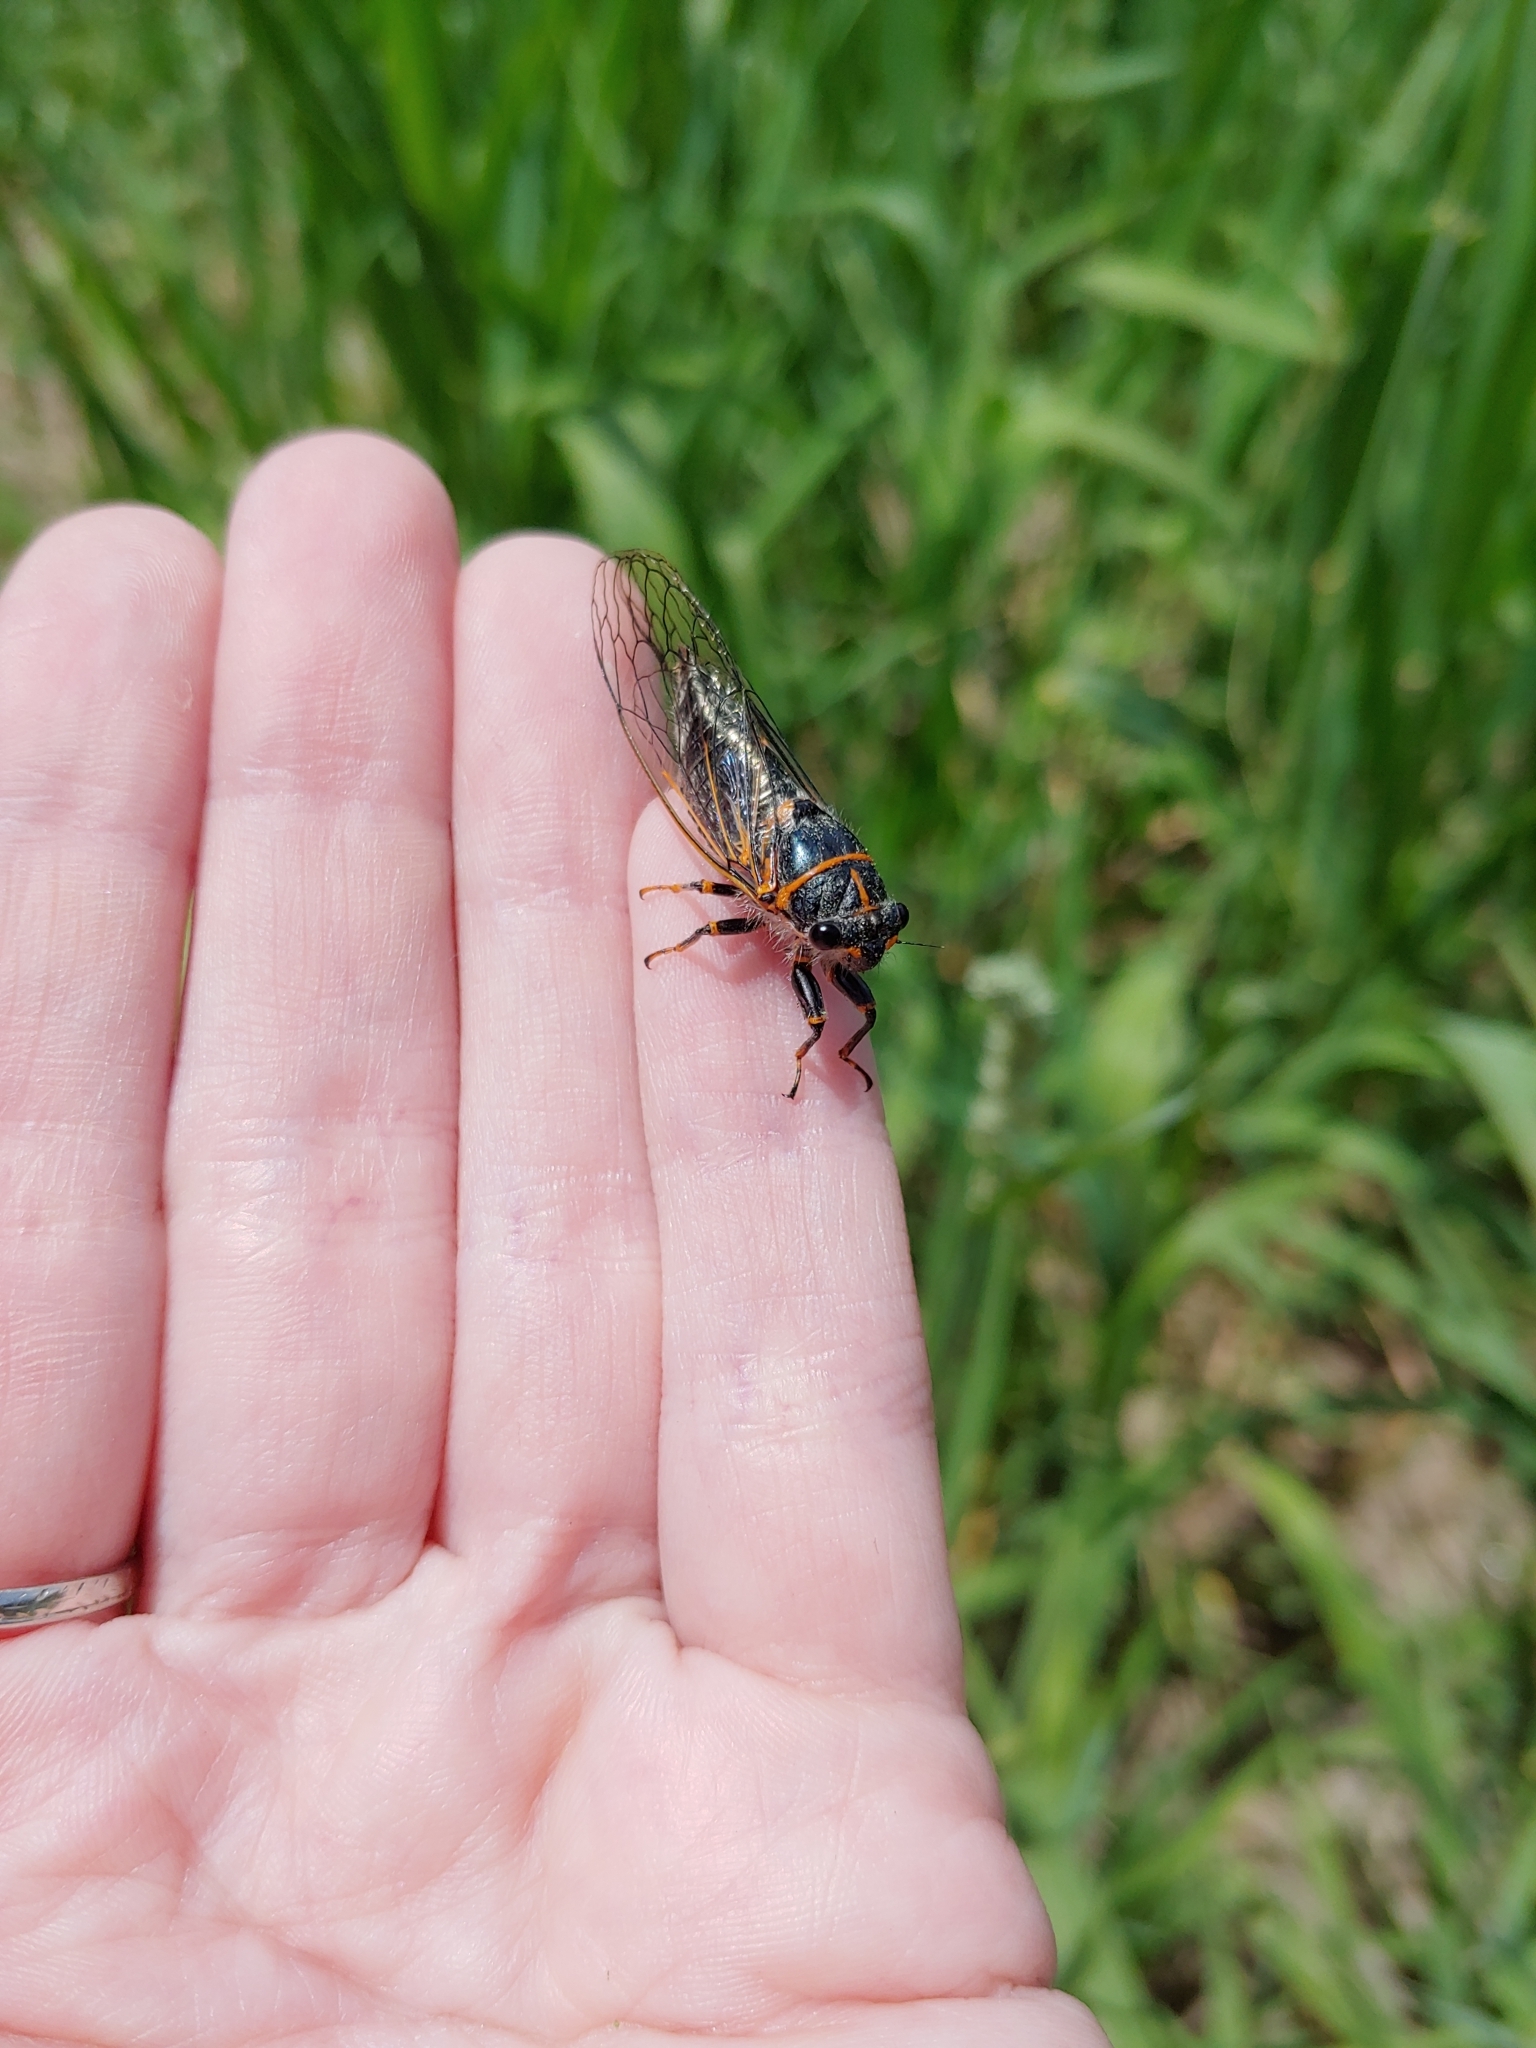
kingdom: Animalia
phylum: Arthropoda
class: Insecta
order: Hemiptera
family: Cicadidae
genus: Platypedia
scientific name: Platypedia putnami
